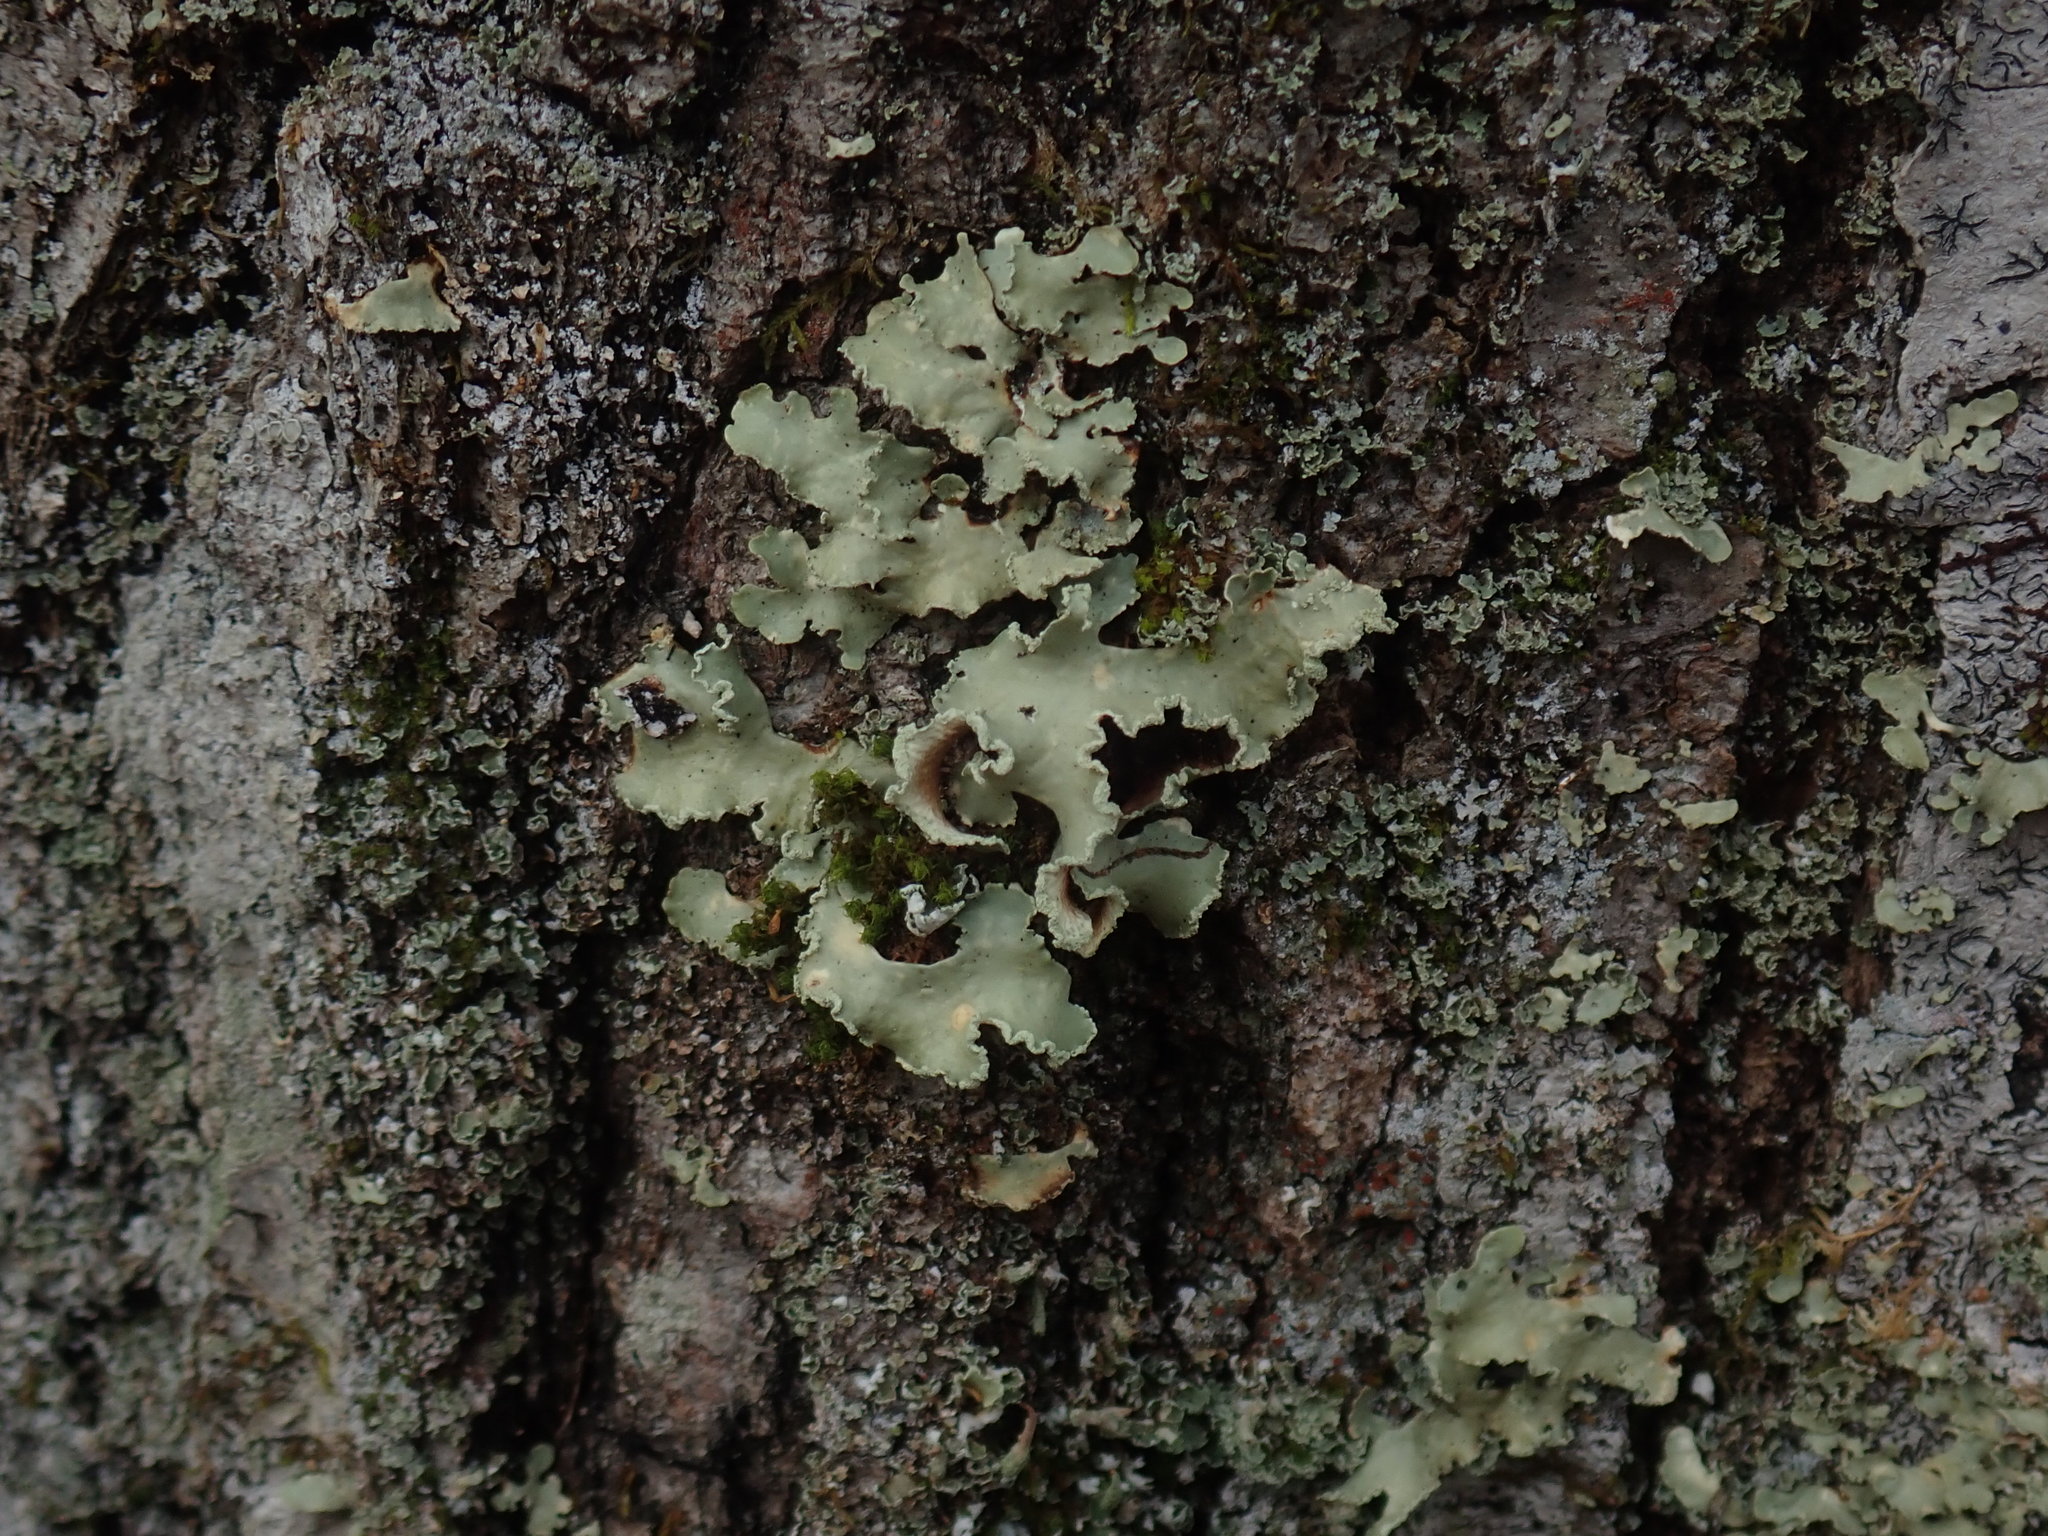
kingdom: Fungi
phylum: Ascomycota
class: Lecanoromycetes
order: Lecanorales
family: Parmeliaceae
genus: Usnocetraria
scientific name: Usnocetraria oakesiana
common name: Yellow ribbon lichen
